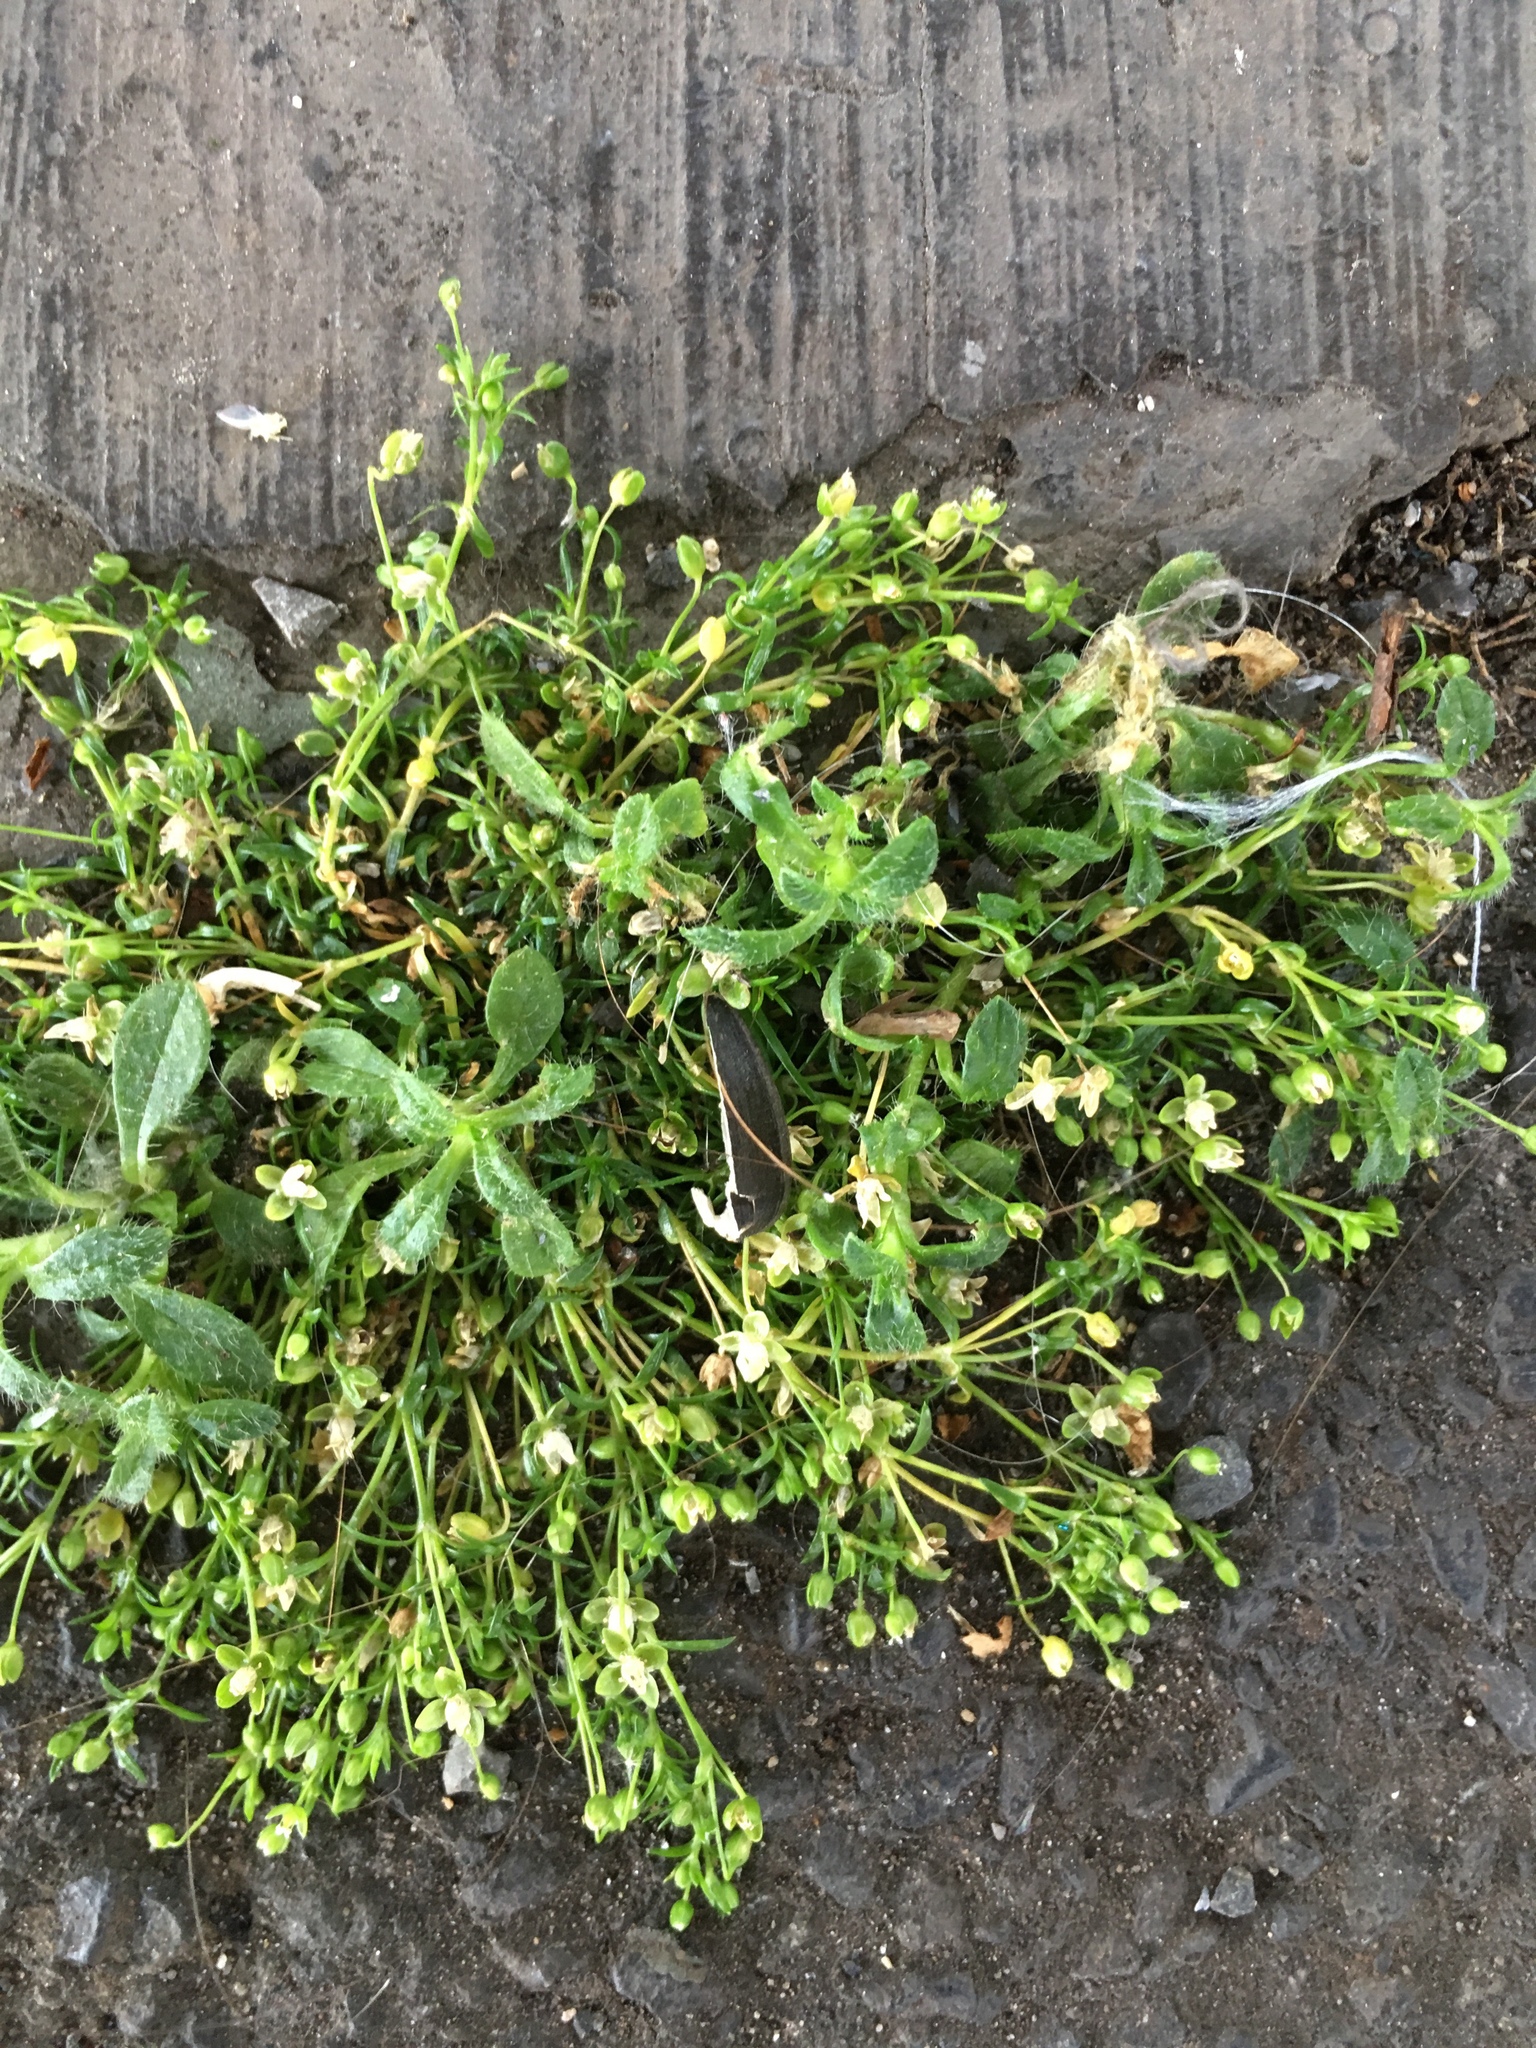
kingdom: Plantae
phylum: Tracheophyta
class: Magnoliopsida
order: Caryophyllales
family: Caryophyllaceae
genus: Sagina
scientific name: Sagina procumbens
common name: Procumbent pearlwort
